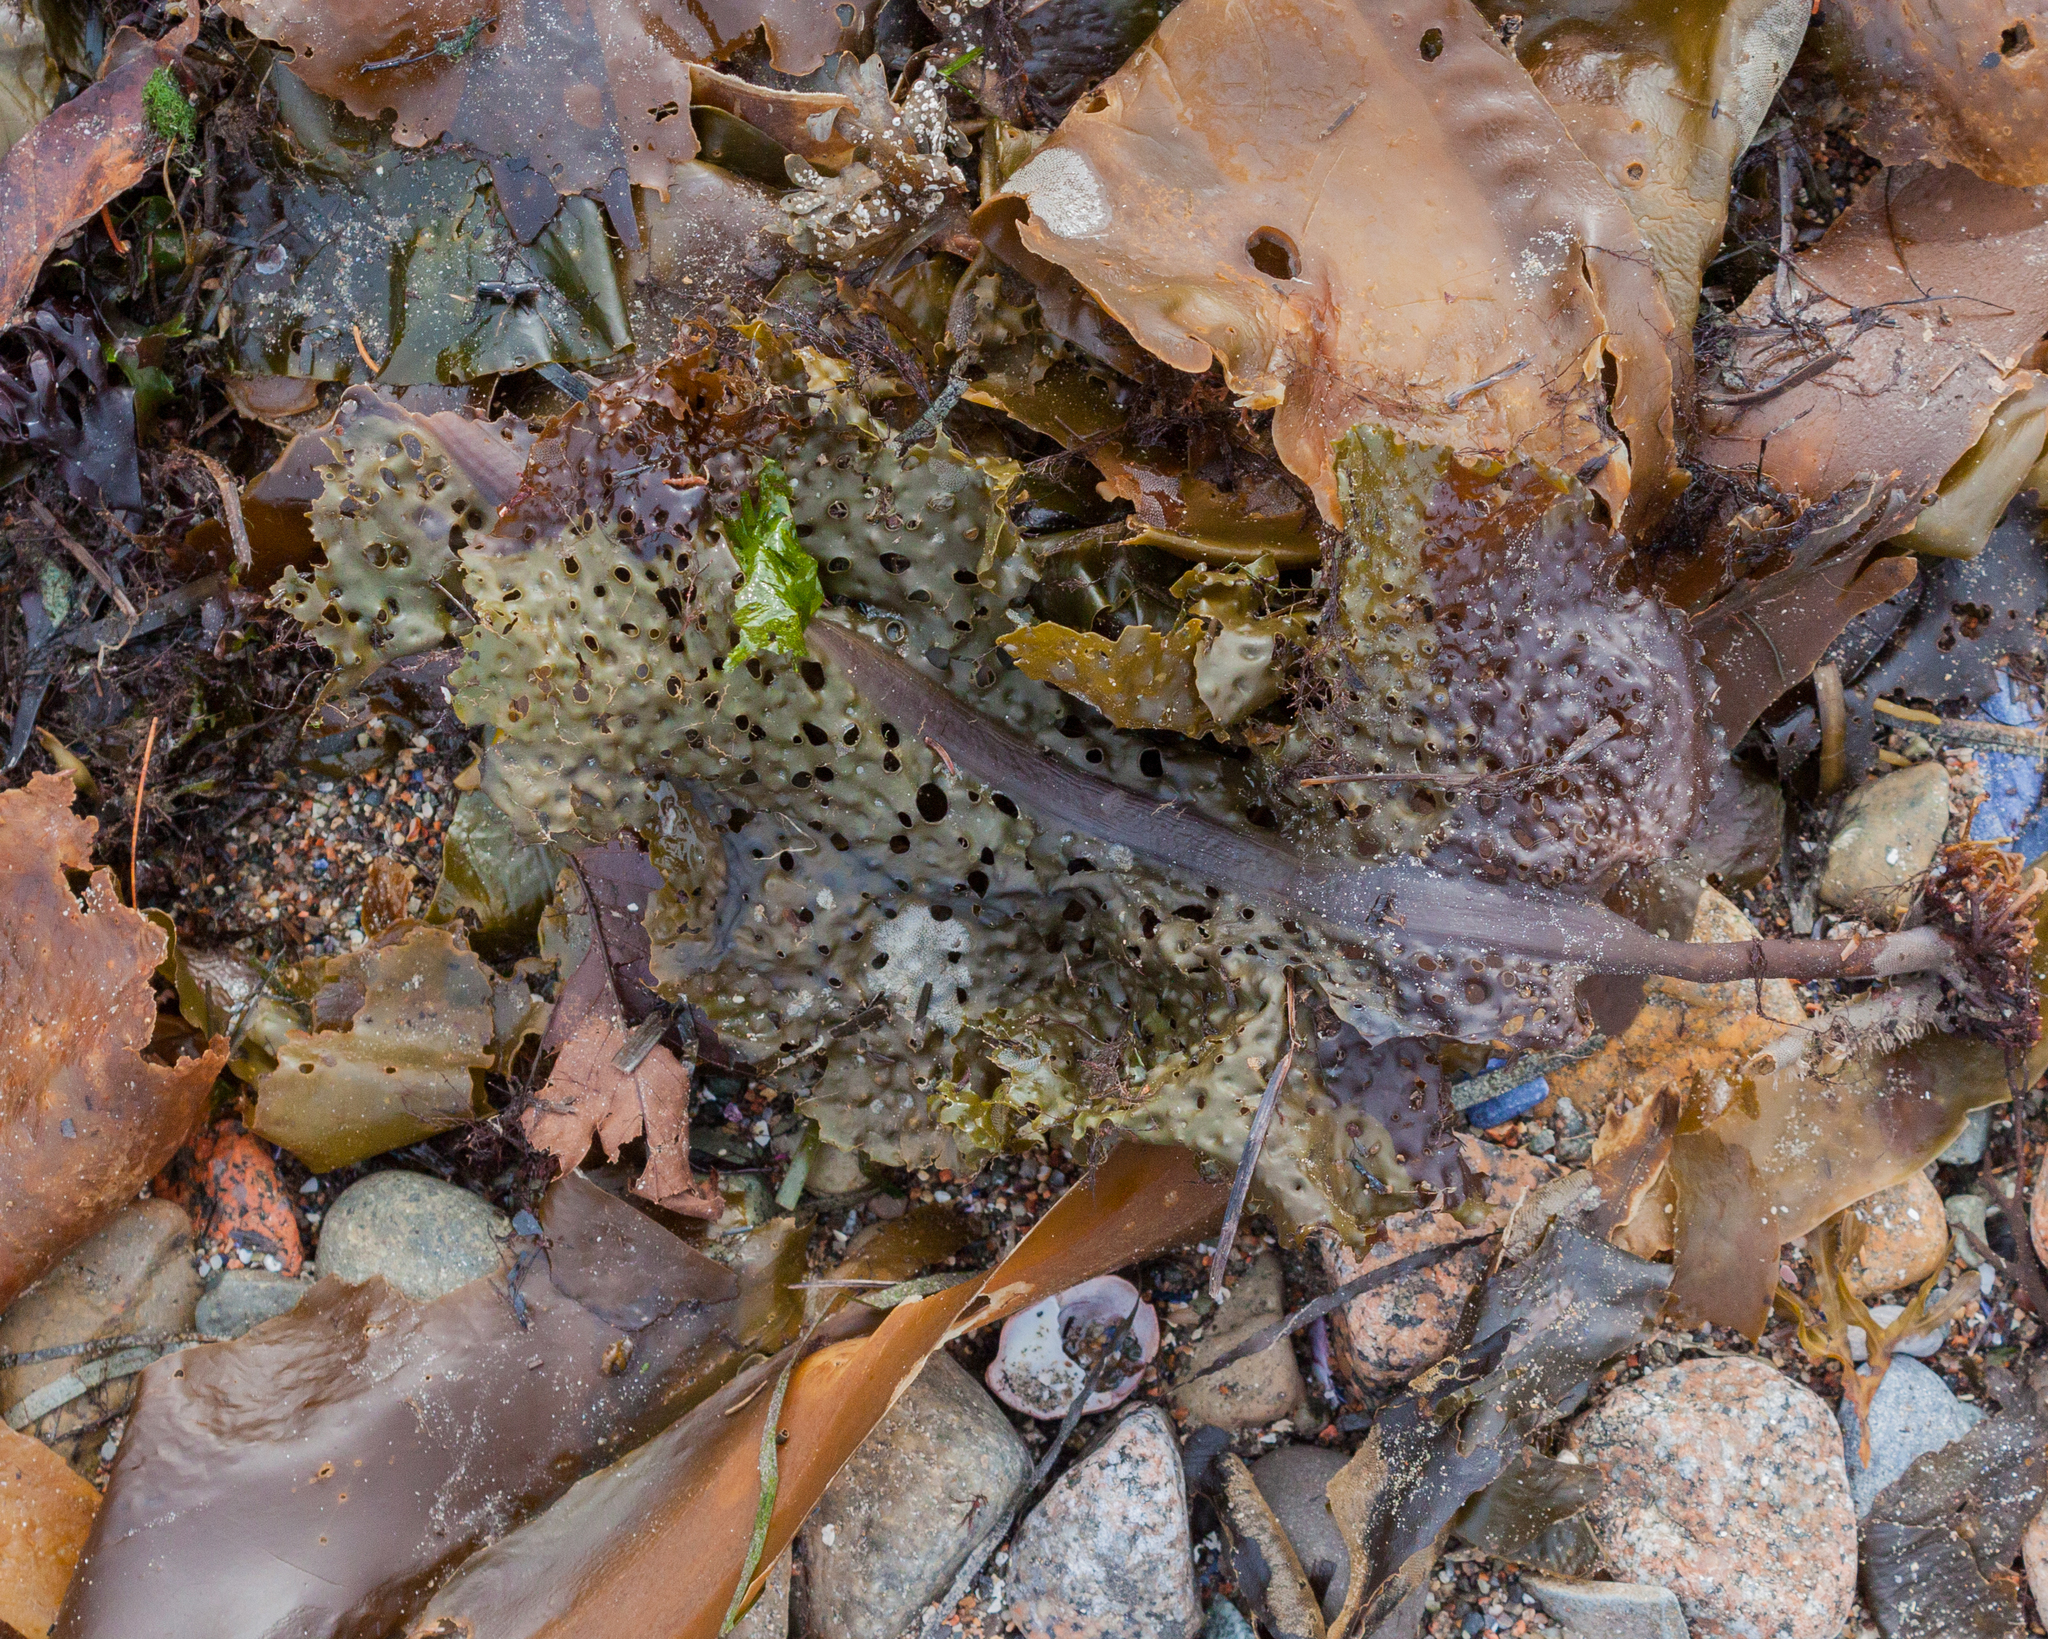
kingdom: Chromista
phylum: Ochrophyta
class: Phaeophyceae
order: Laminariales
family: Costariaceae
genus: Agarum
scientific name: Agarum clathratum
